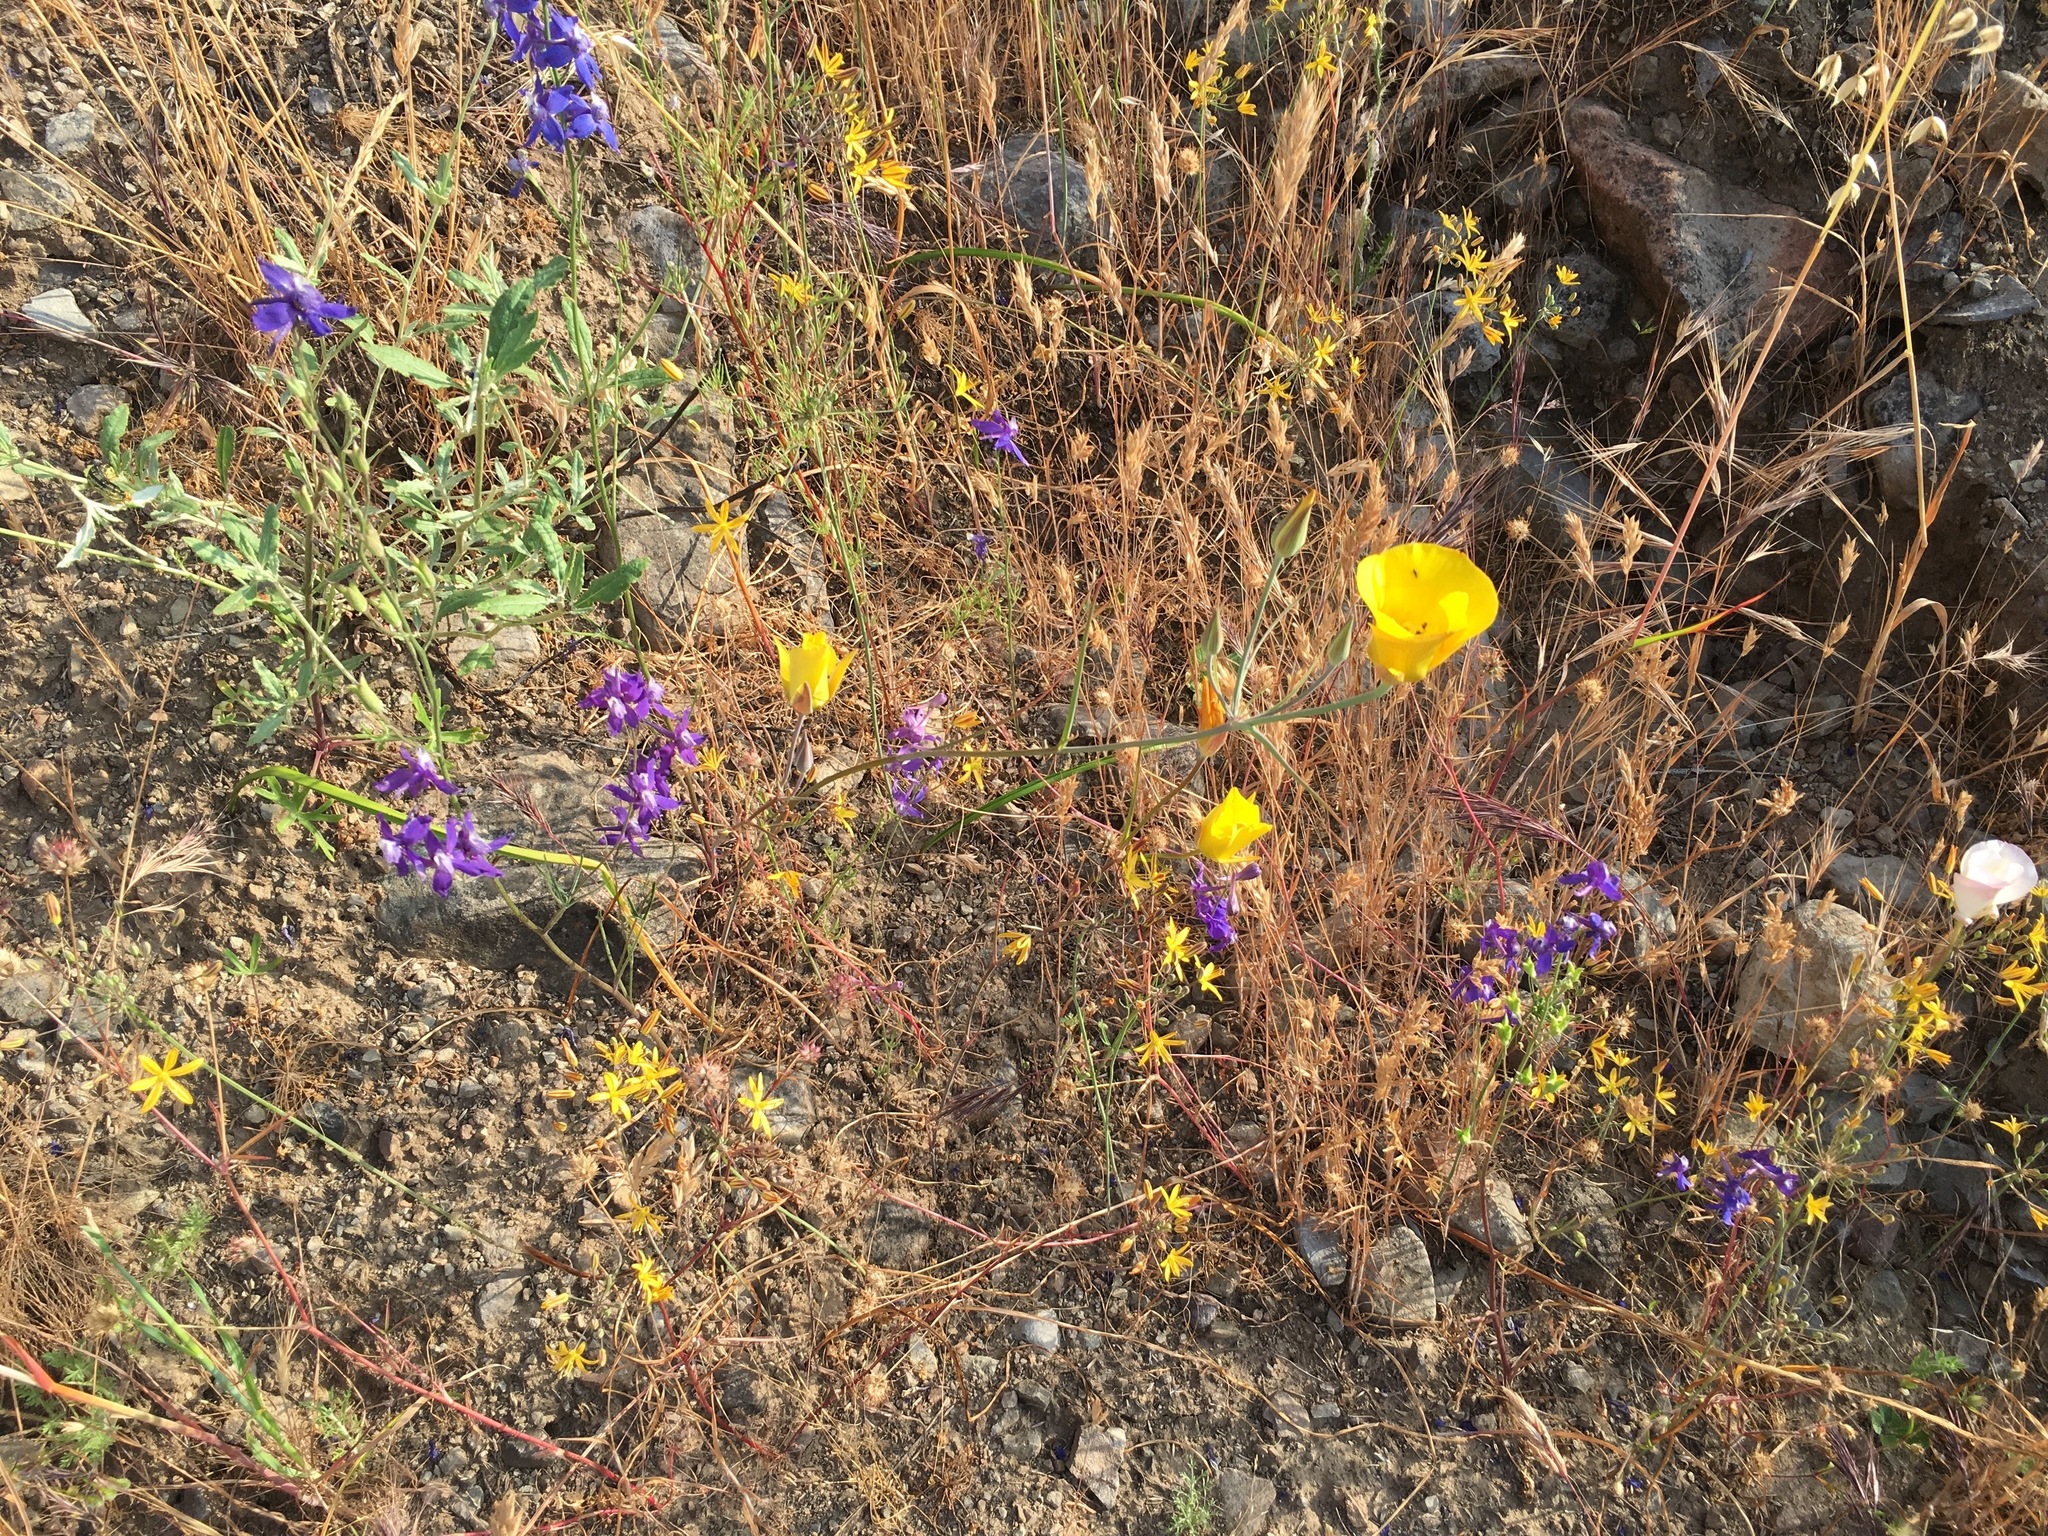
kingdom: Plantae
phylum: Tracheophyta
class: Liliopsida
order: Liliales
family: Liliaceae
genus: Calochortus
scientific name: Calochortus clavatus
